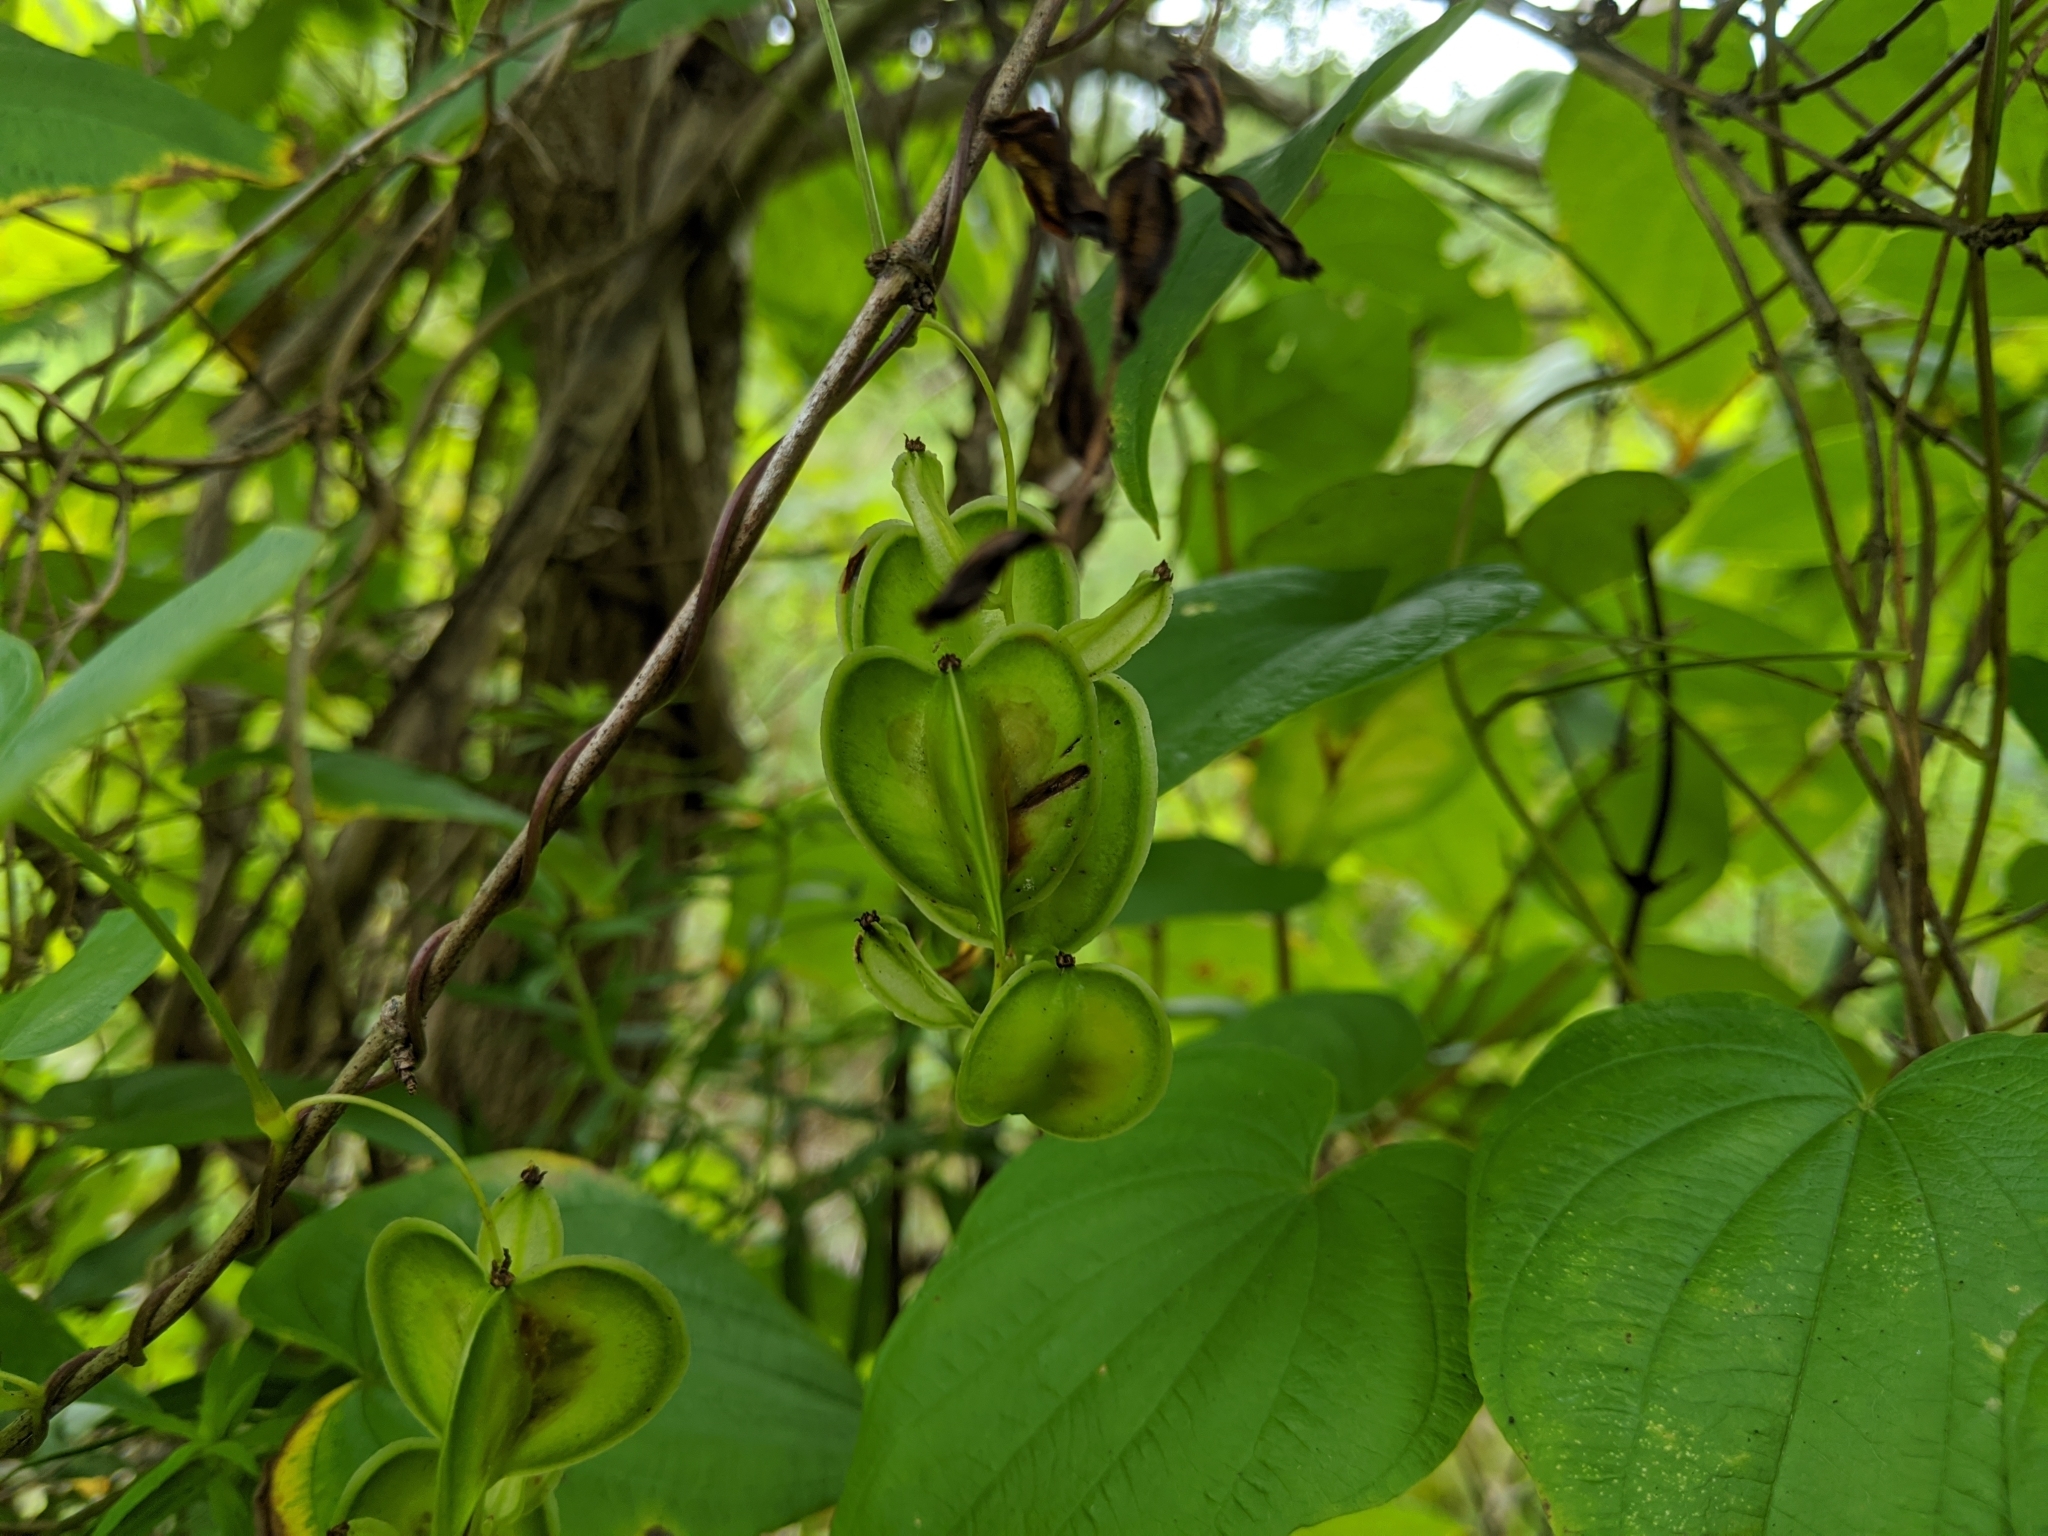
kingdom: Plantae
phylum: Tracheophyta
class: Liliopsida
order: Dioscoreales
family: Dioscoreaceae
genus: Dioscorea
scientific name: Dioscorea villosa
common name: Wild yam
